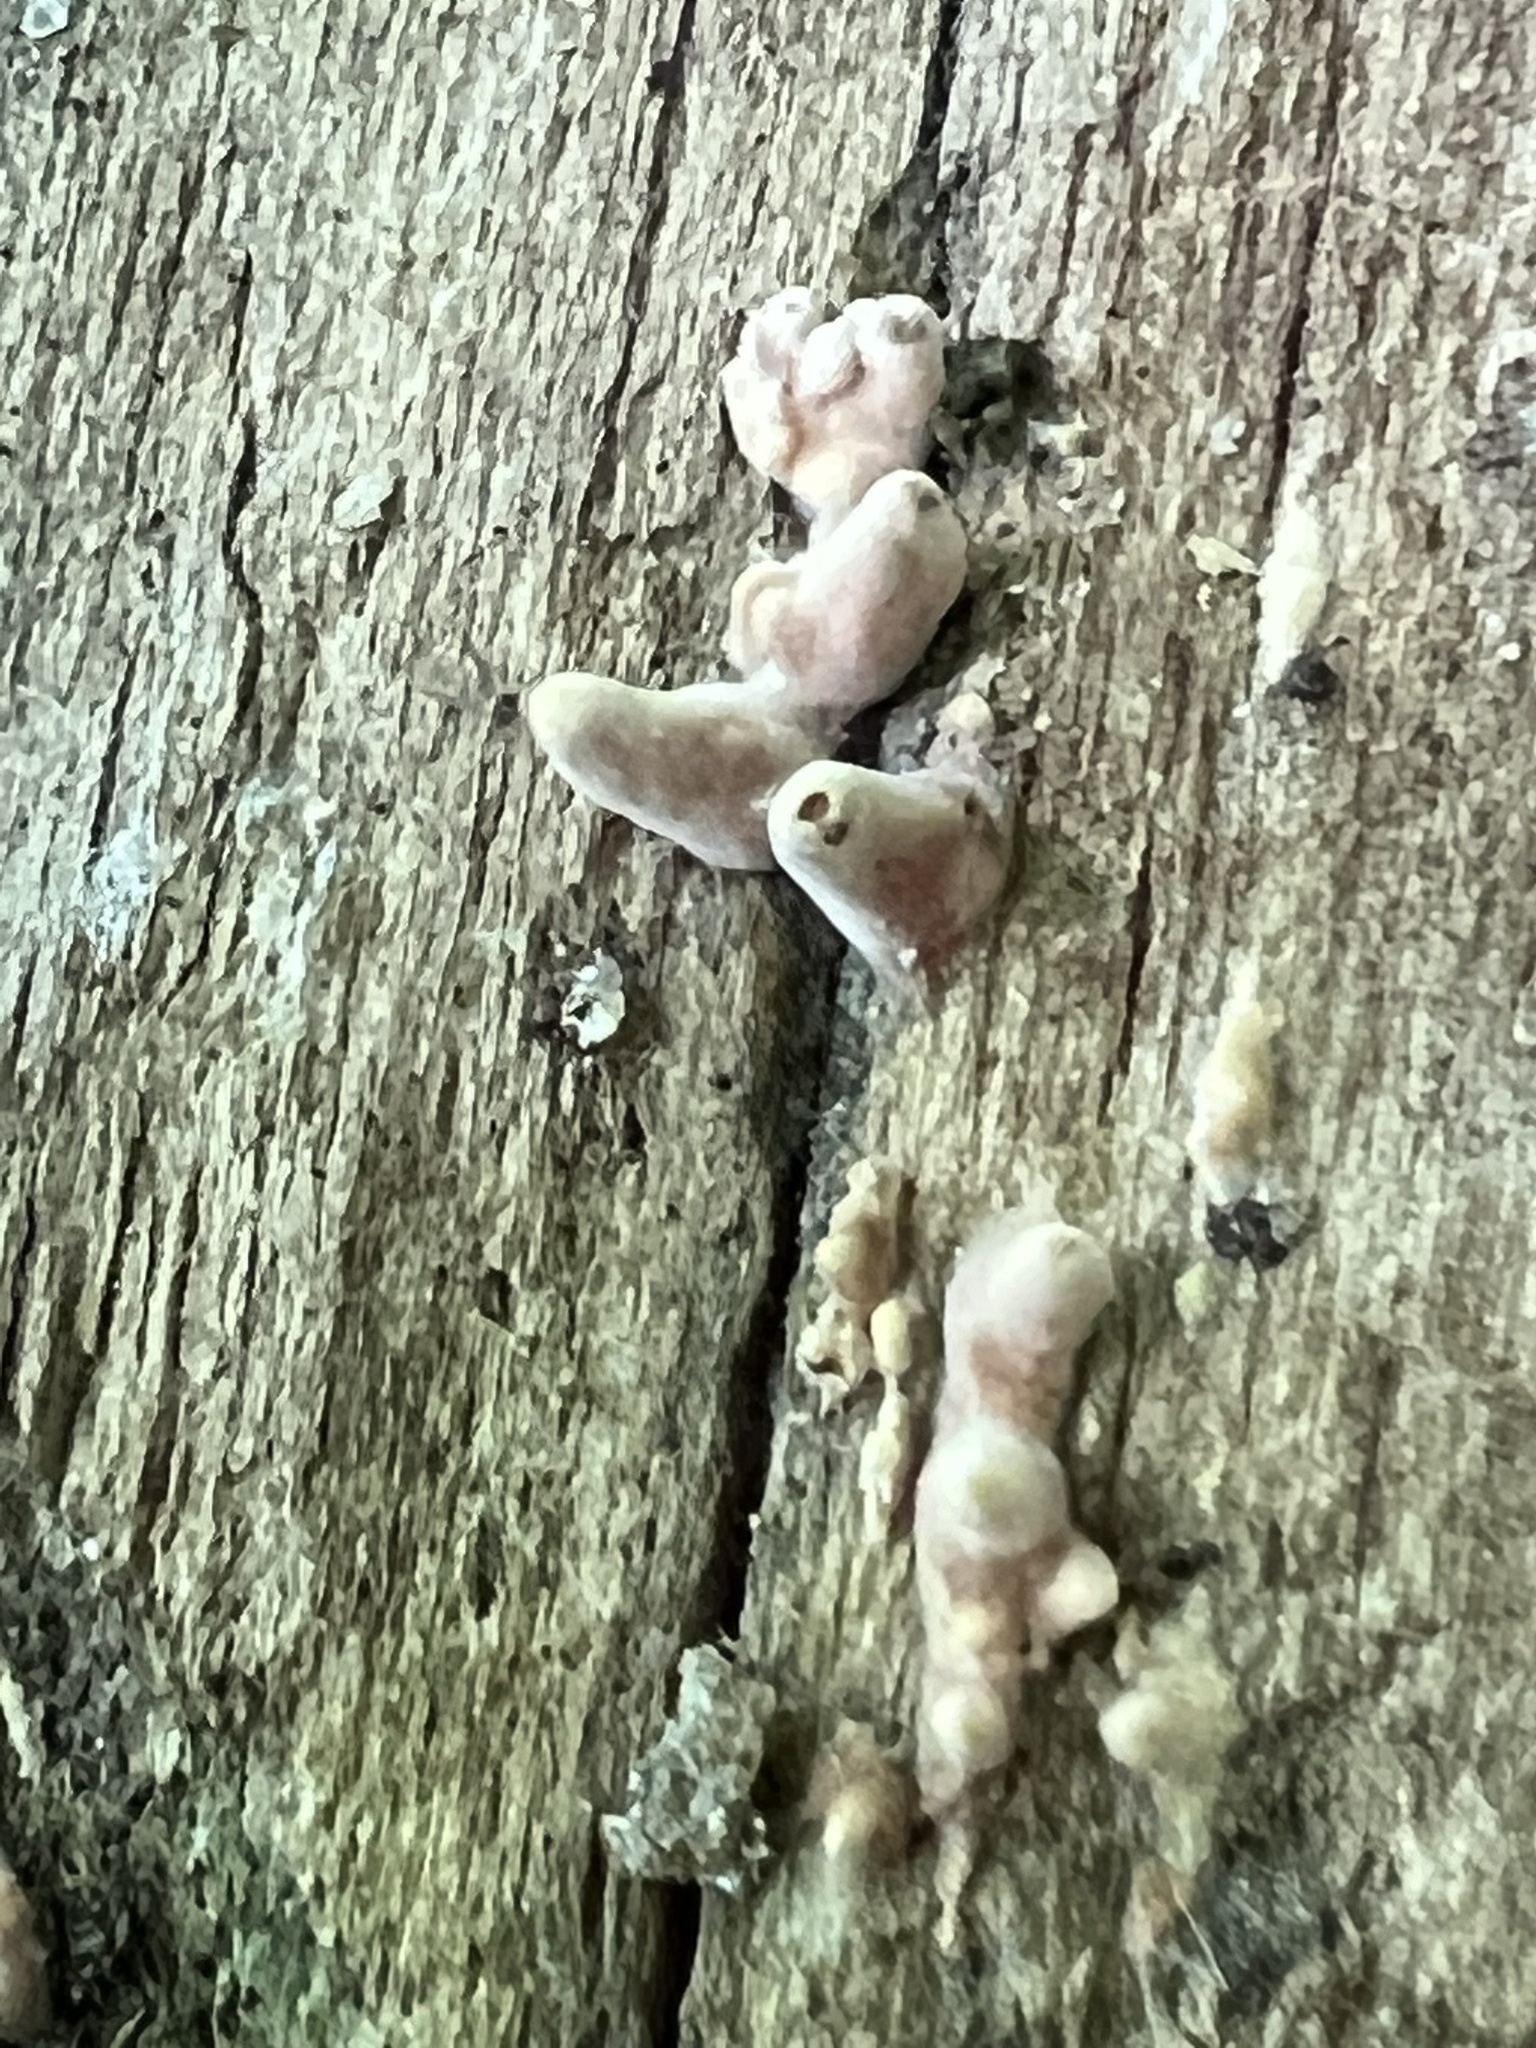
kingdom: Fungi
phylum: Basidiomycota
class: Dacrymycetes
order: Dacrymycetales
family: Dacrymycetaceae
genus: Dacryopinax
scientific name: Dacryopinax elegans
